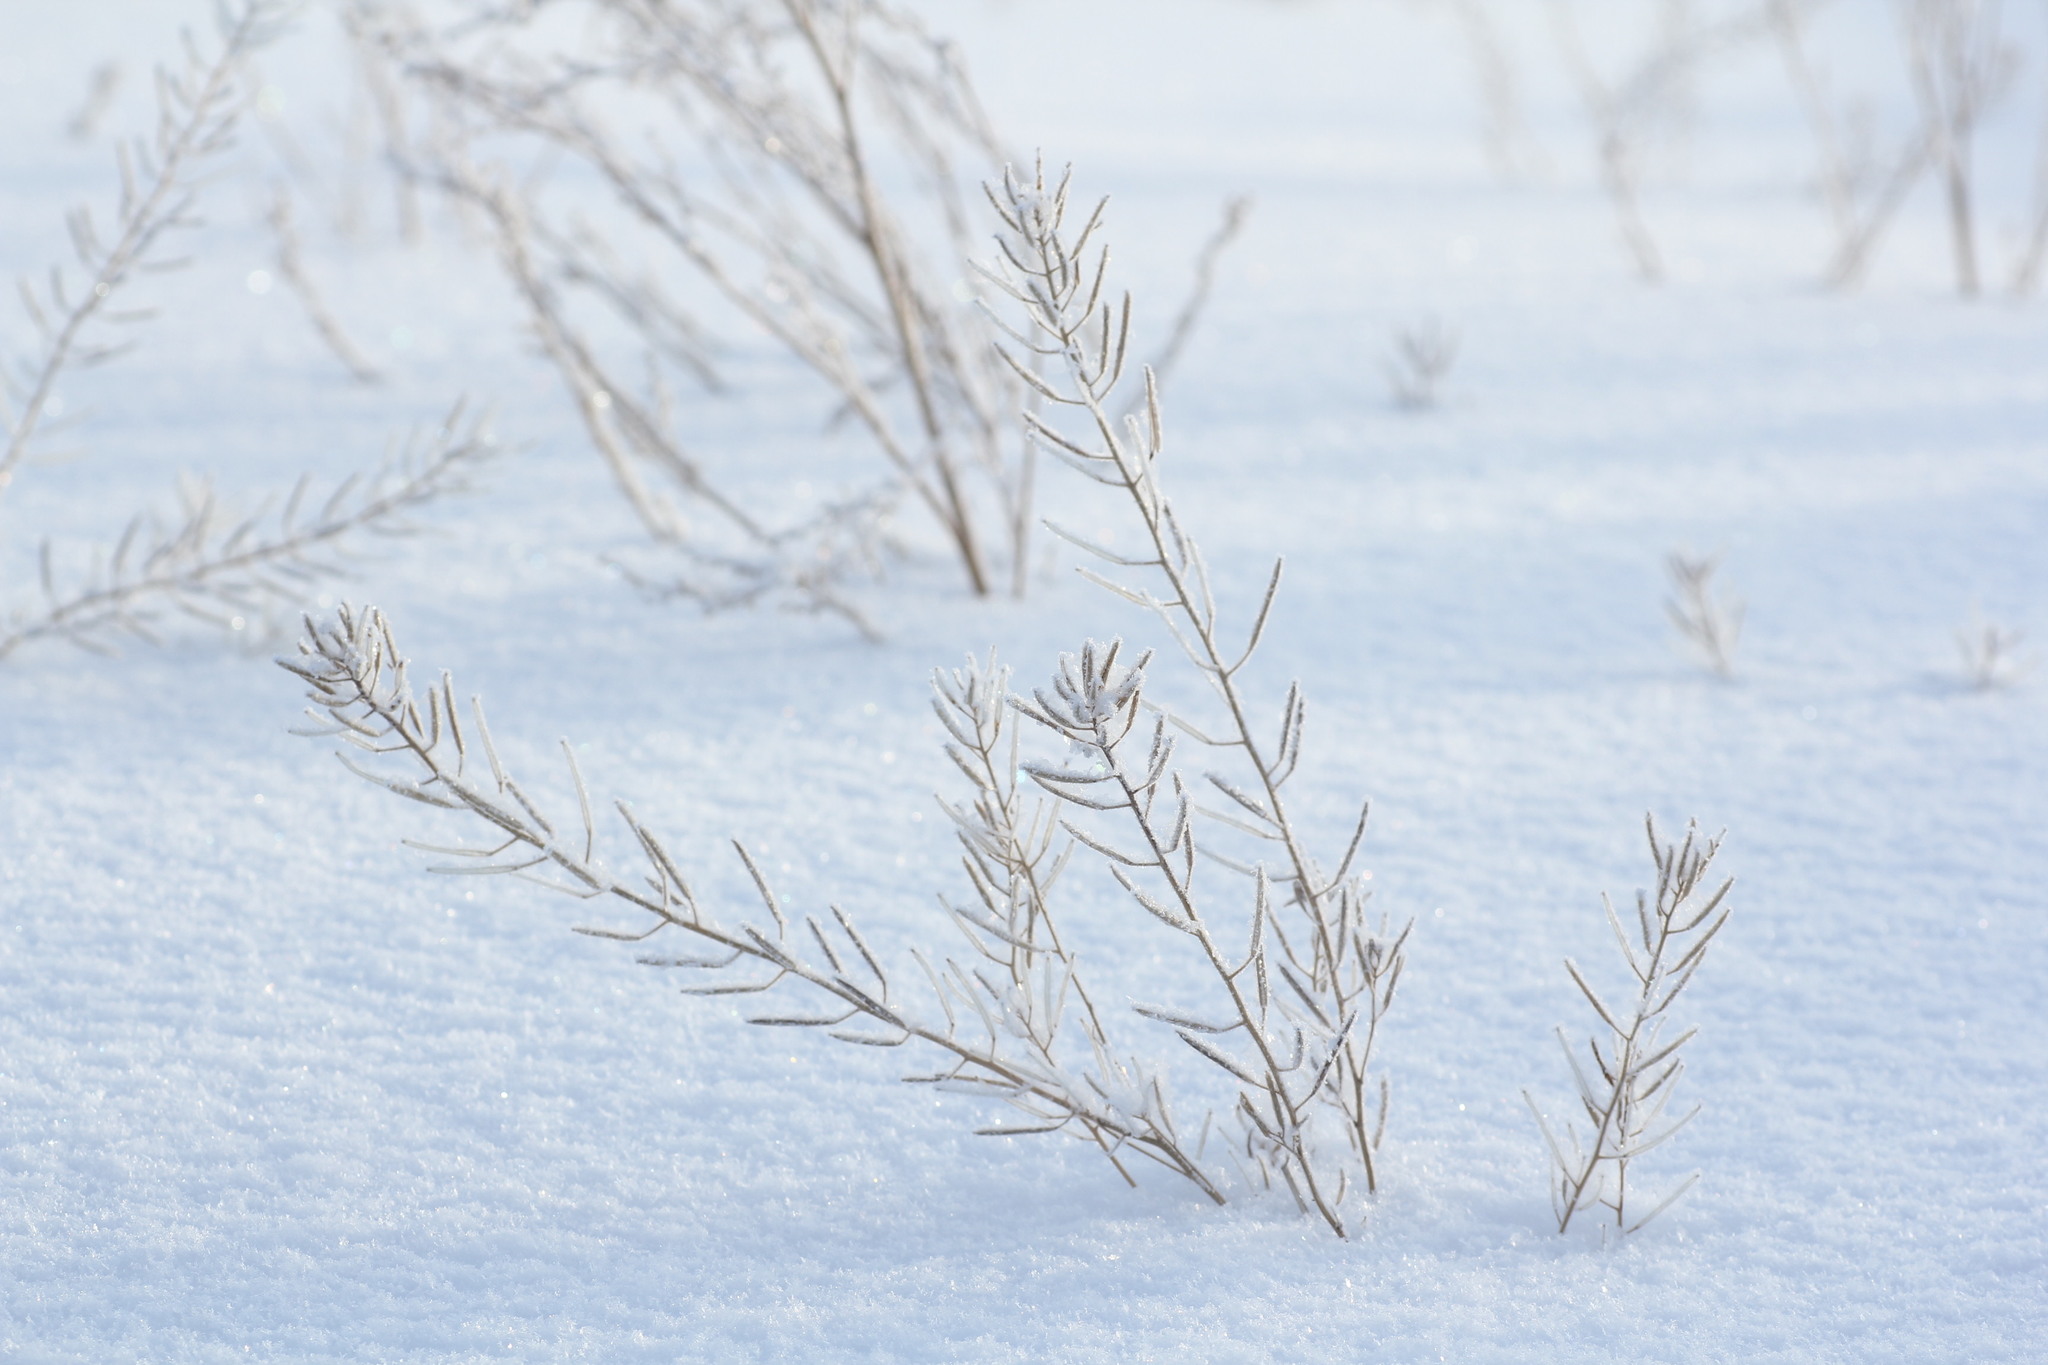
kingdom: Plantae
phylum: Tracheophyta
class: Magnoliopsida
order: Brassicales
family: Brassicaceae
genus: Erysimum
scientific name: Erysimum cheiranthoides
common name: Treacle mustard
